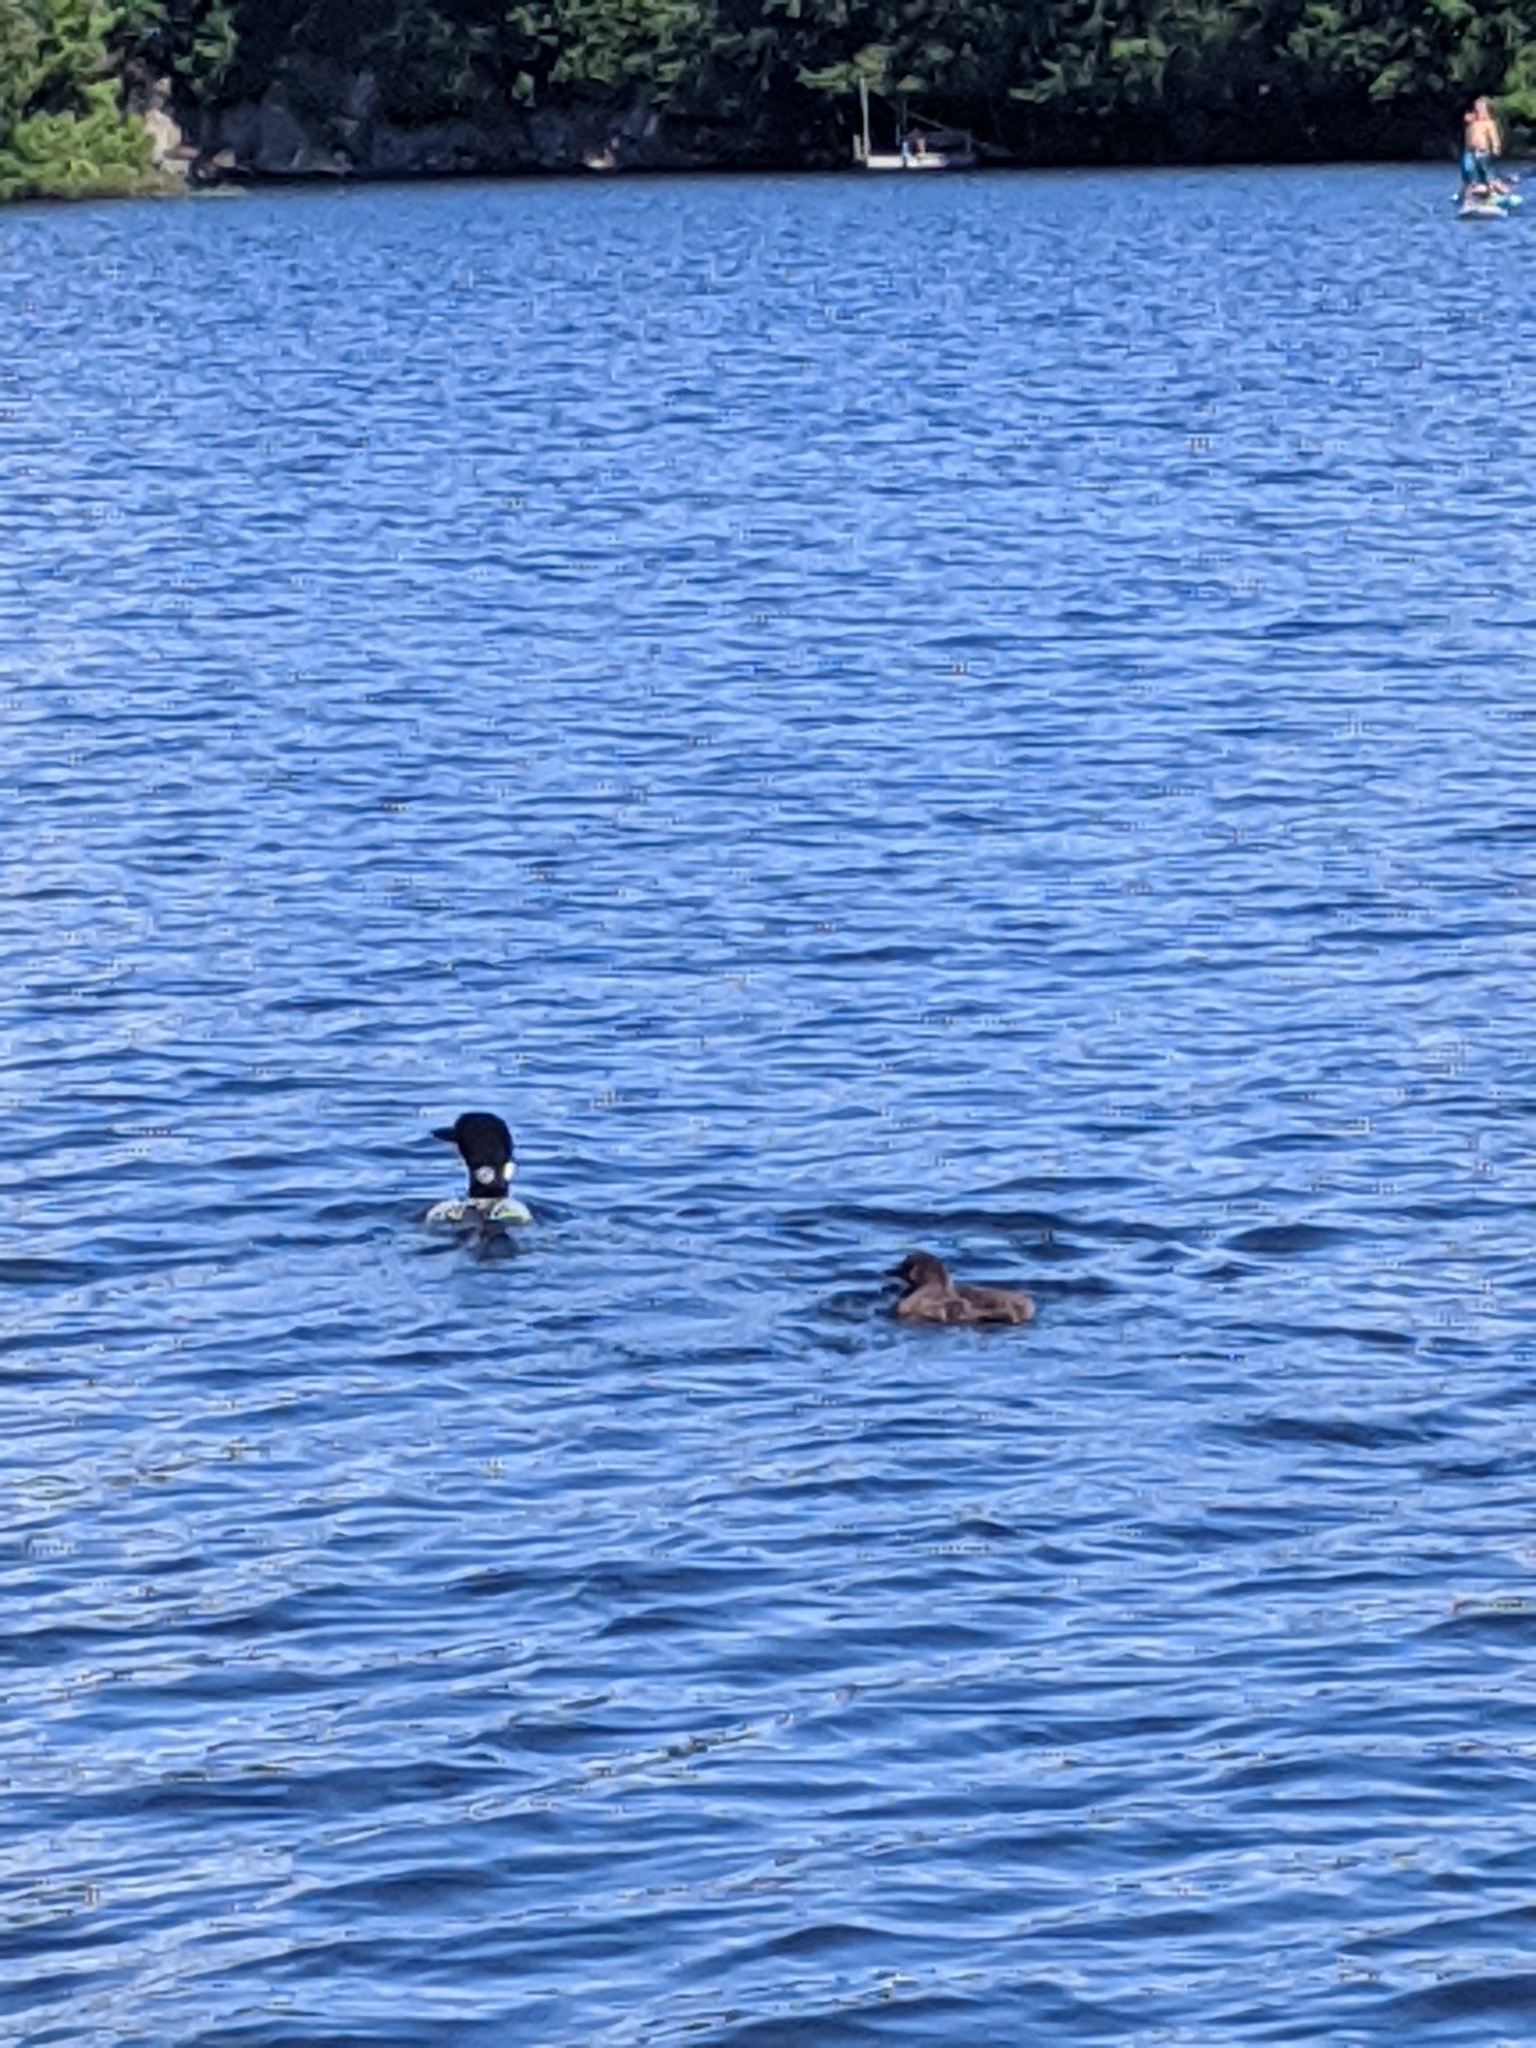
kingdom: Animalia
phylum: Chordata
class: Aves
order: Gaviiformes
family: Gaviidae
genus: Gavia
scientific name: Gavia immer
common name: Common loon
